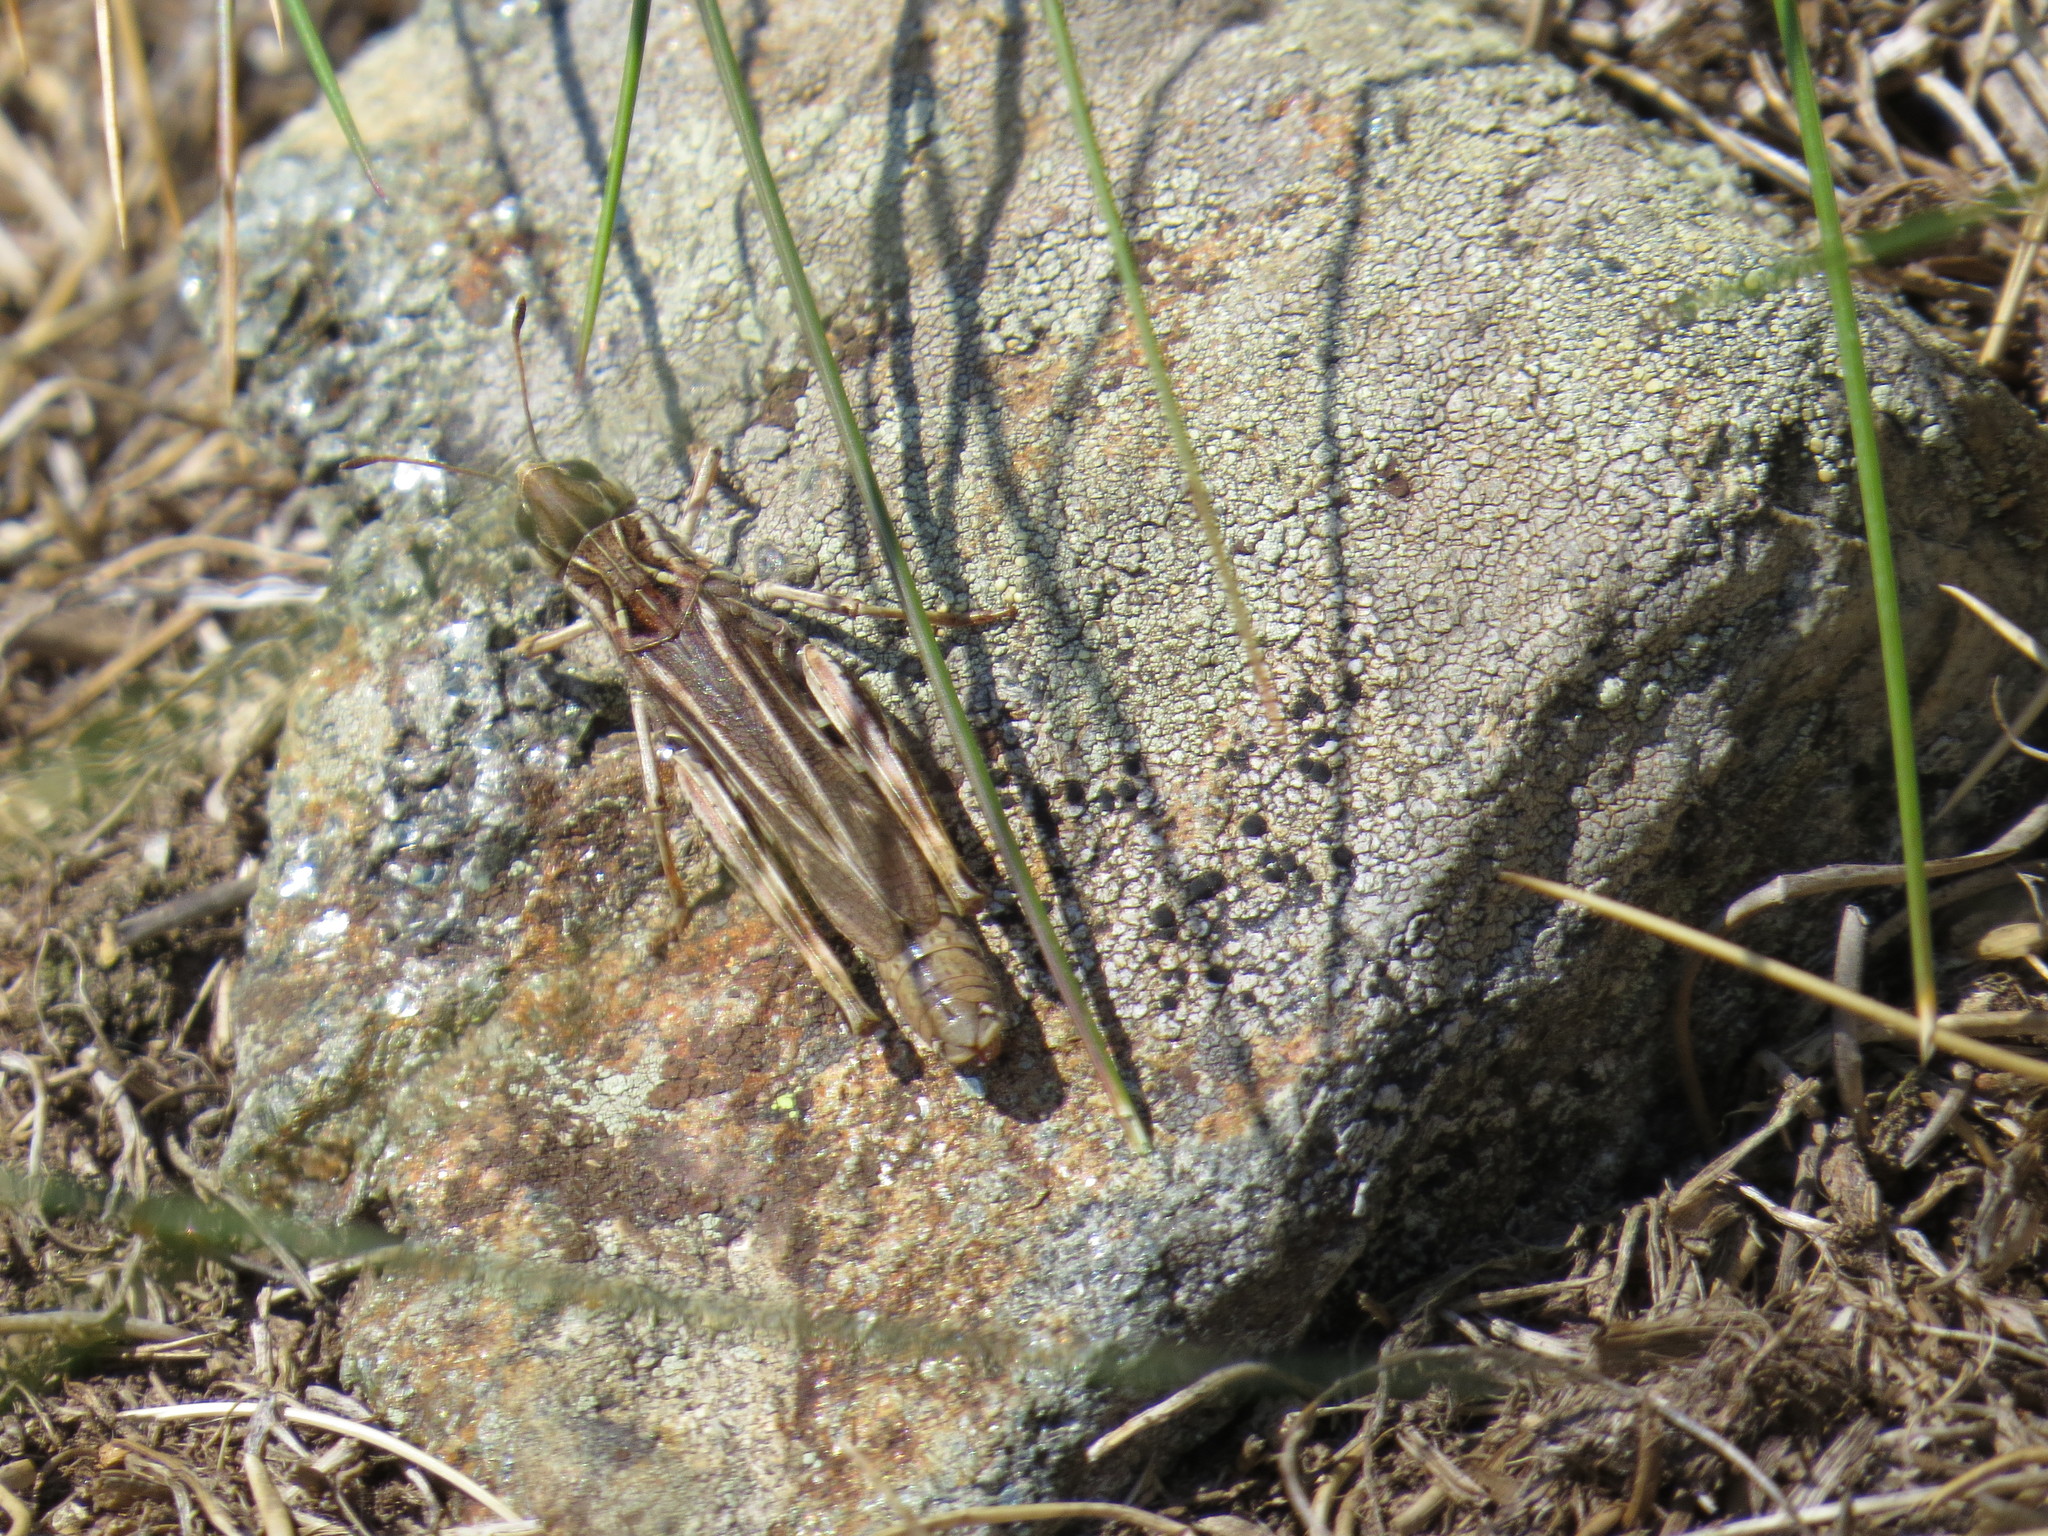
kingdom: Animalia
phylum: Arthropoda
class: Insecta
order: Orthoptera
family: Acrididae
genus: Gomphocerus
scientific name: Gomphocerus sibiricus
